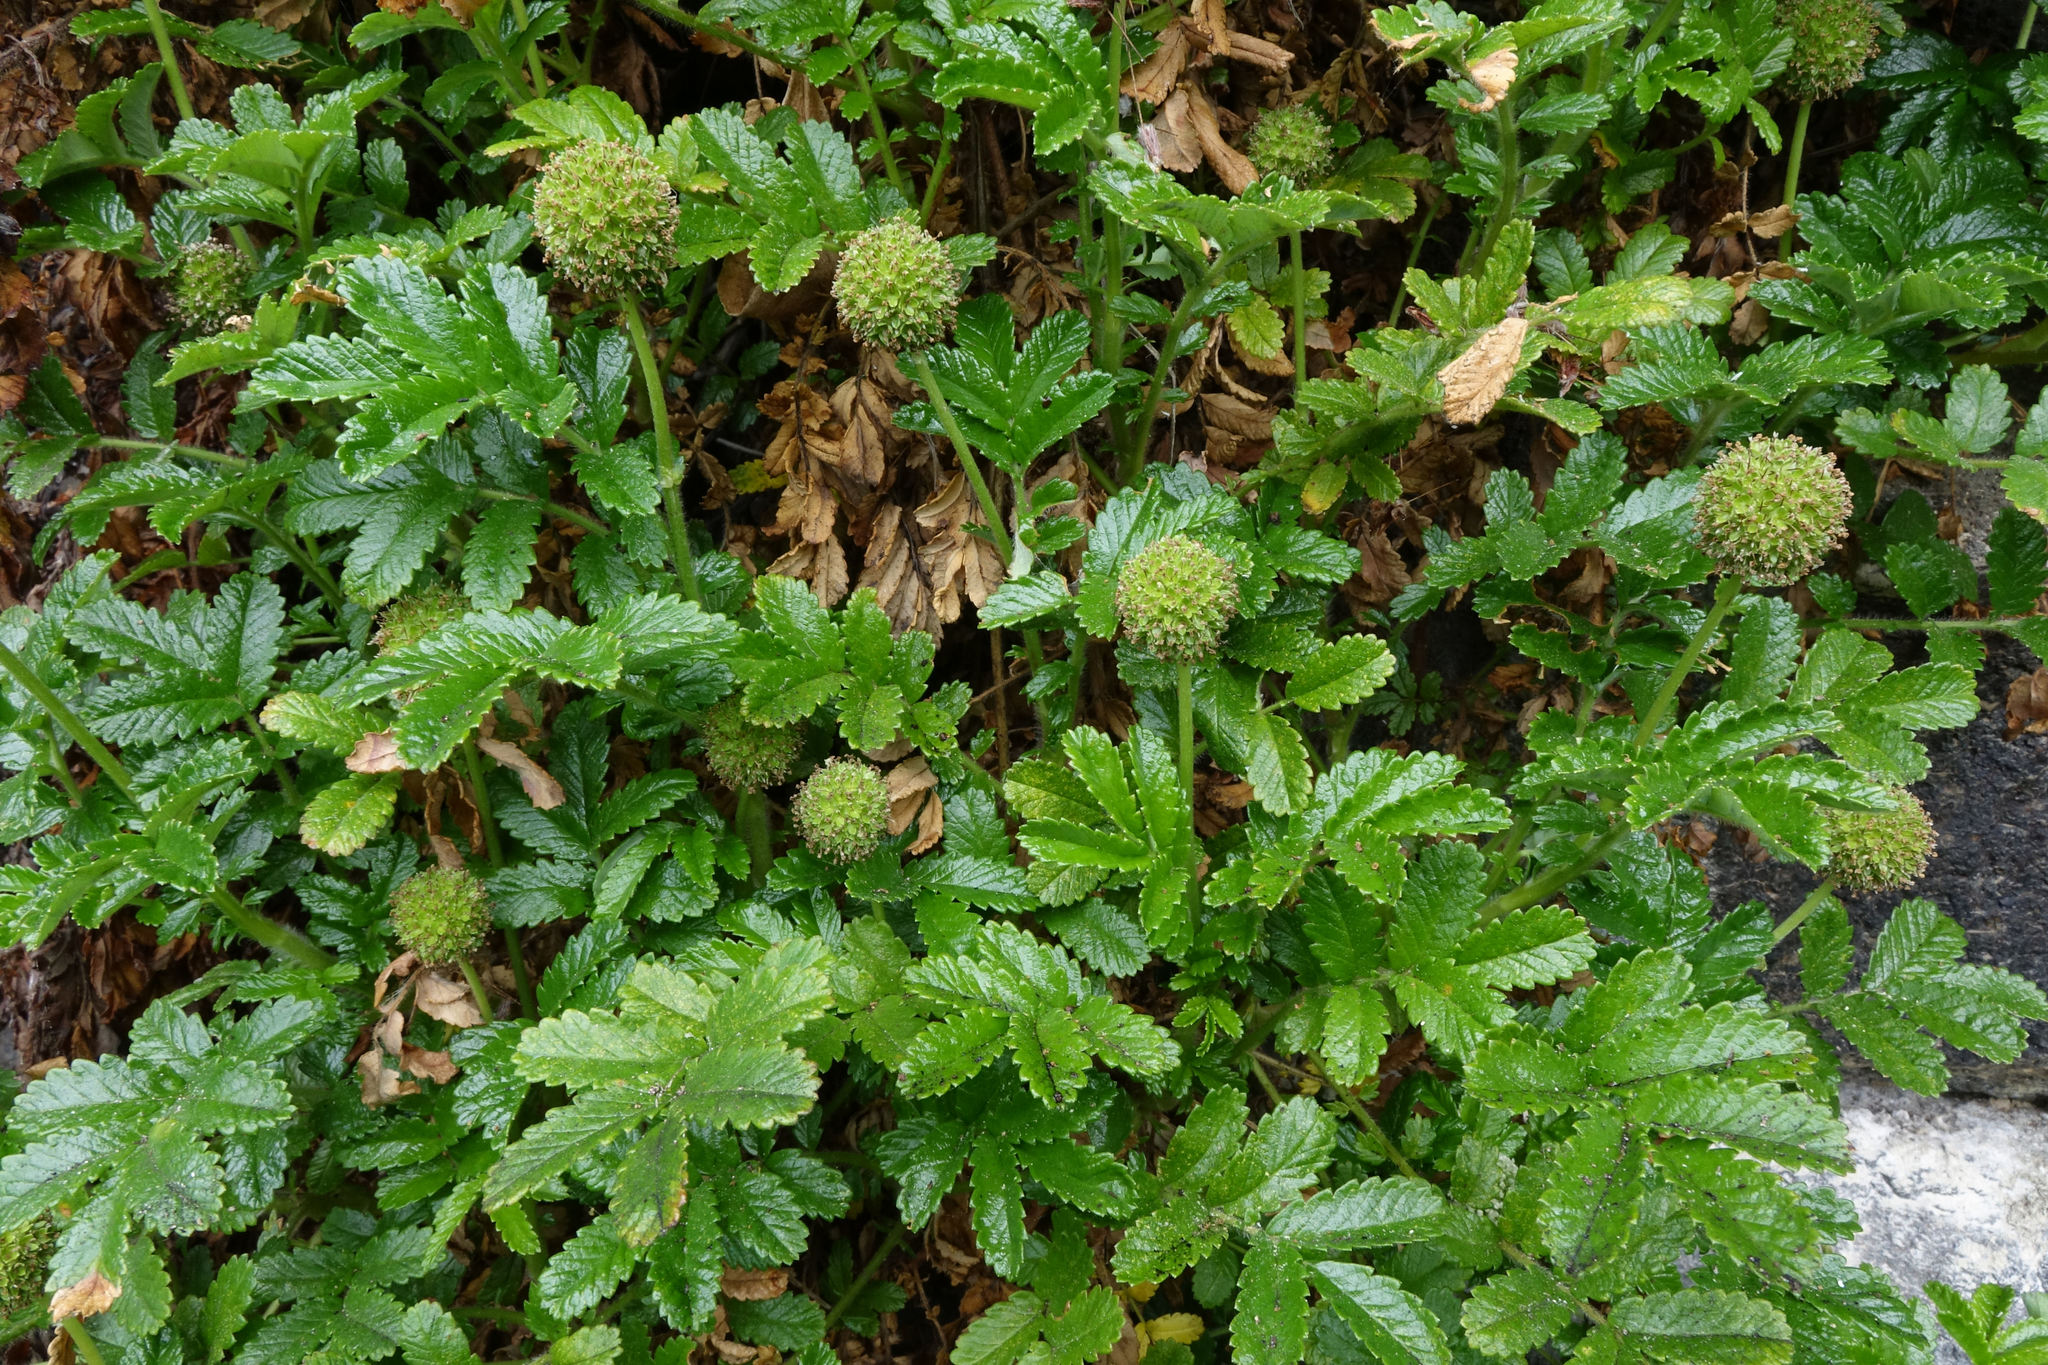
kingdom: Plantae
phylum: Tracheophyta
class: Magnoliopsida
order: Rosales
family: Rosaceae
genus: Acaena
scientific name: Acaena pallida
